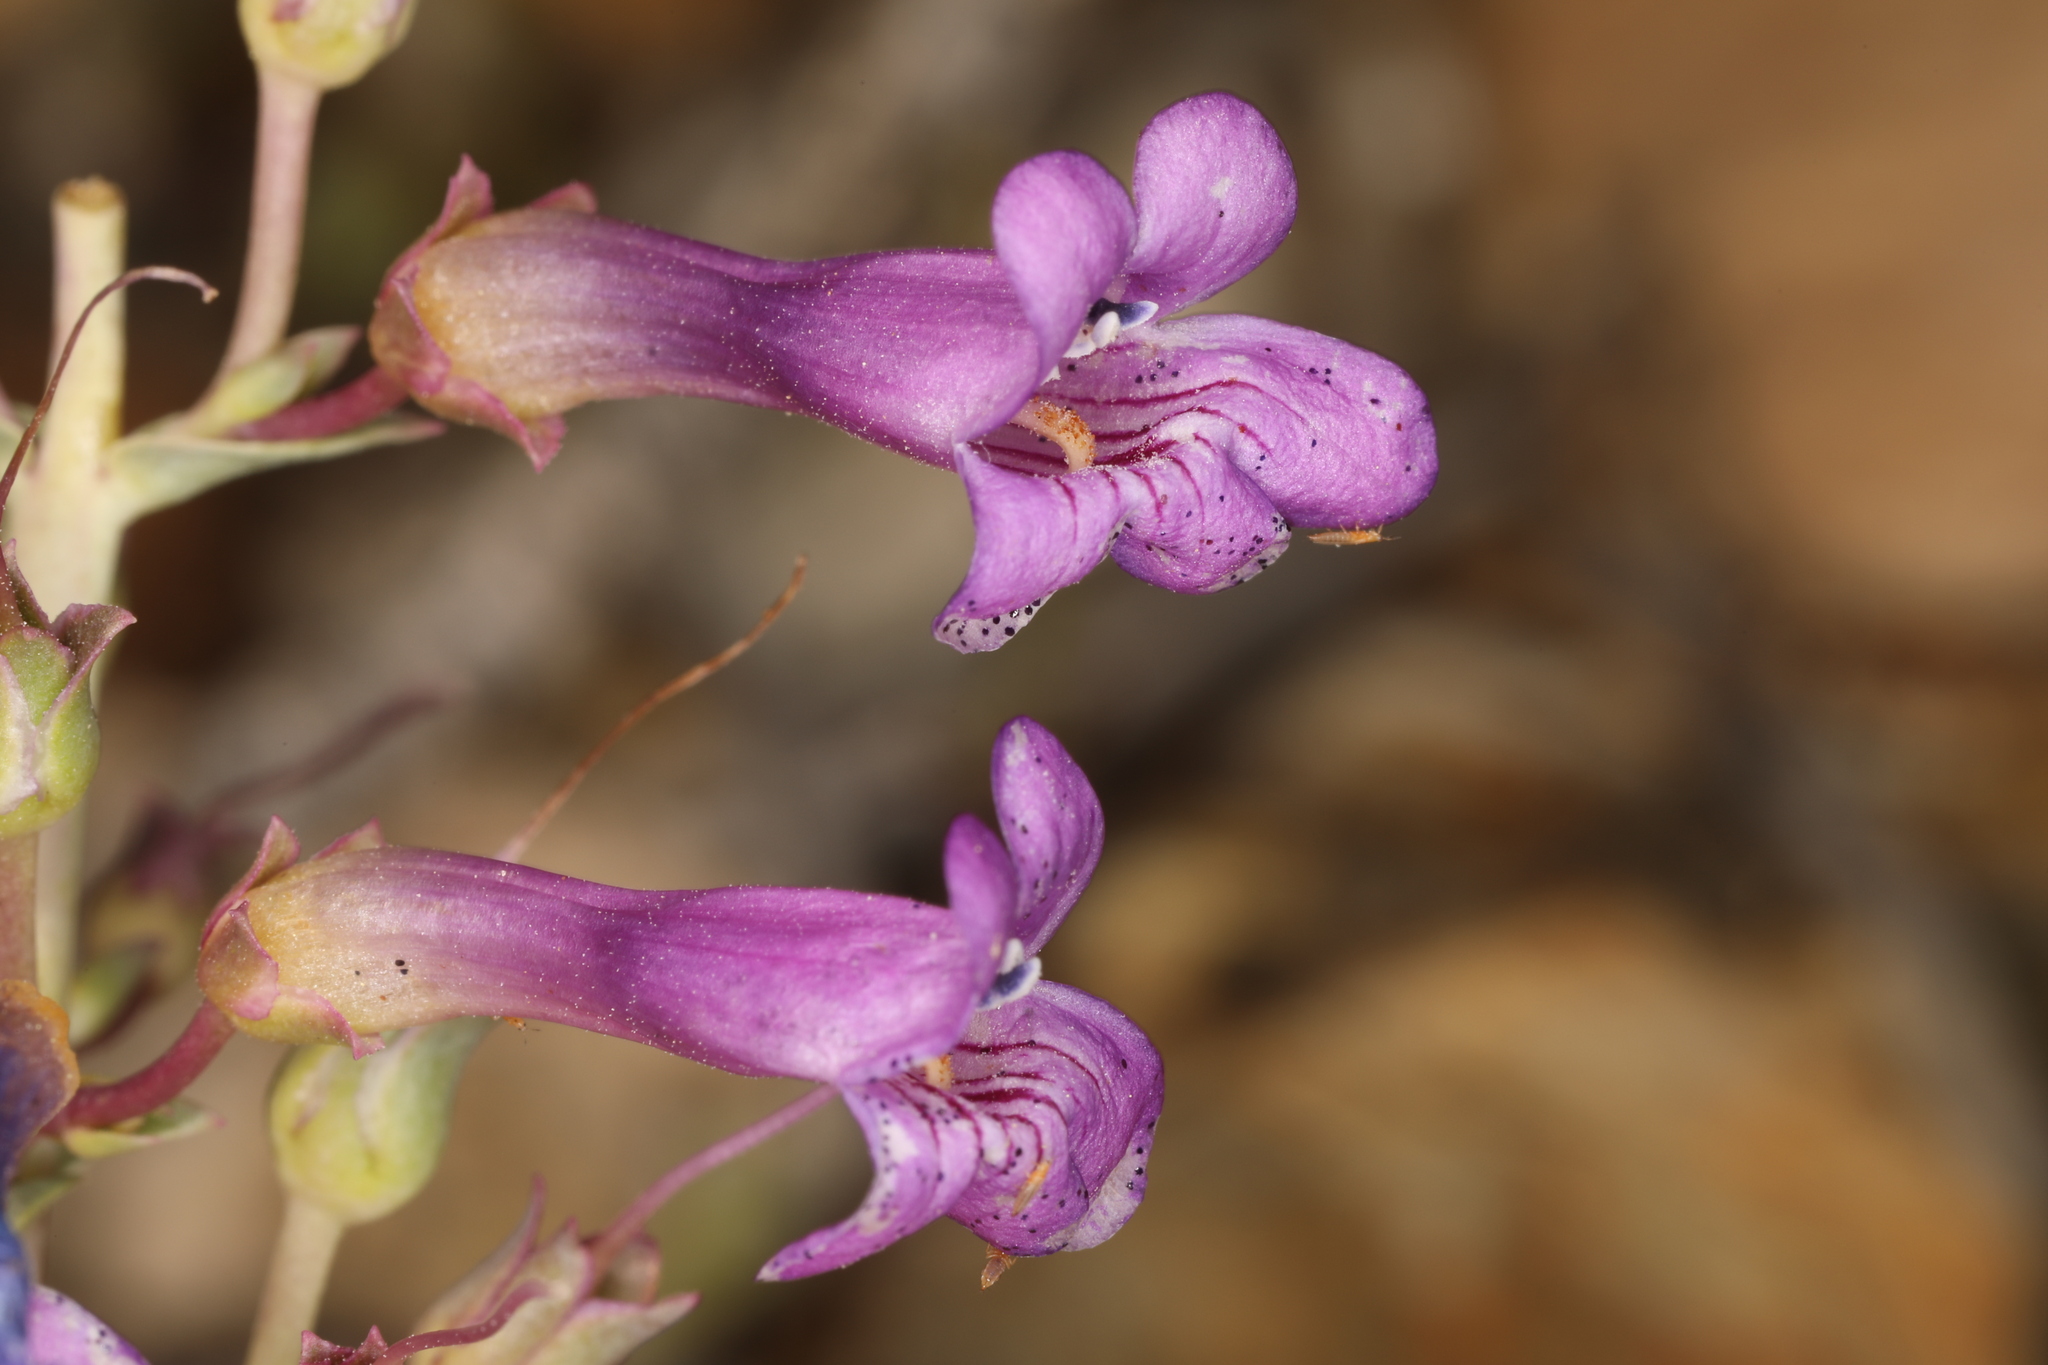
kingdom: Plantae
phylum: Tracheophyta
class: Magnoliopsida
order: Lamiales
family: Plantaginaceae
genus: Penstemon
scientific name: Penstemon patens
